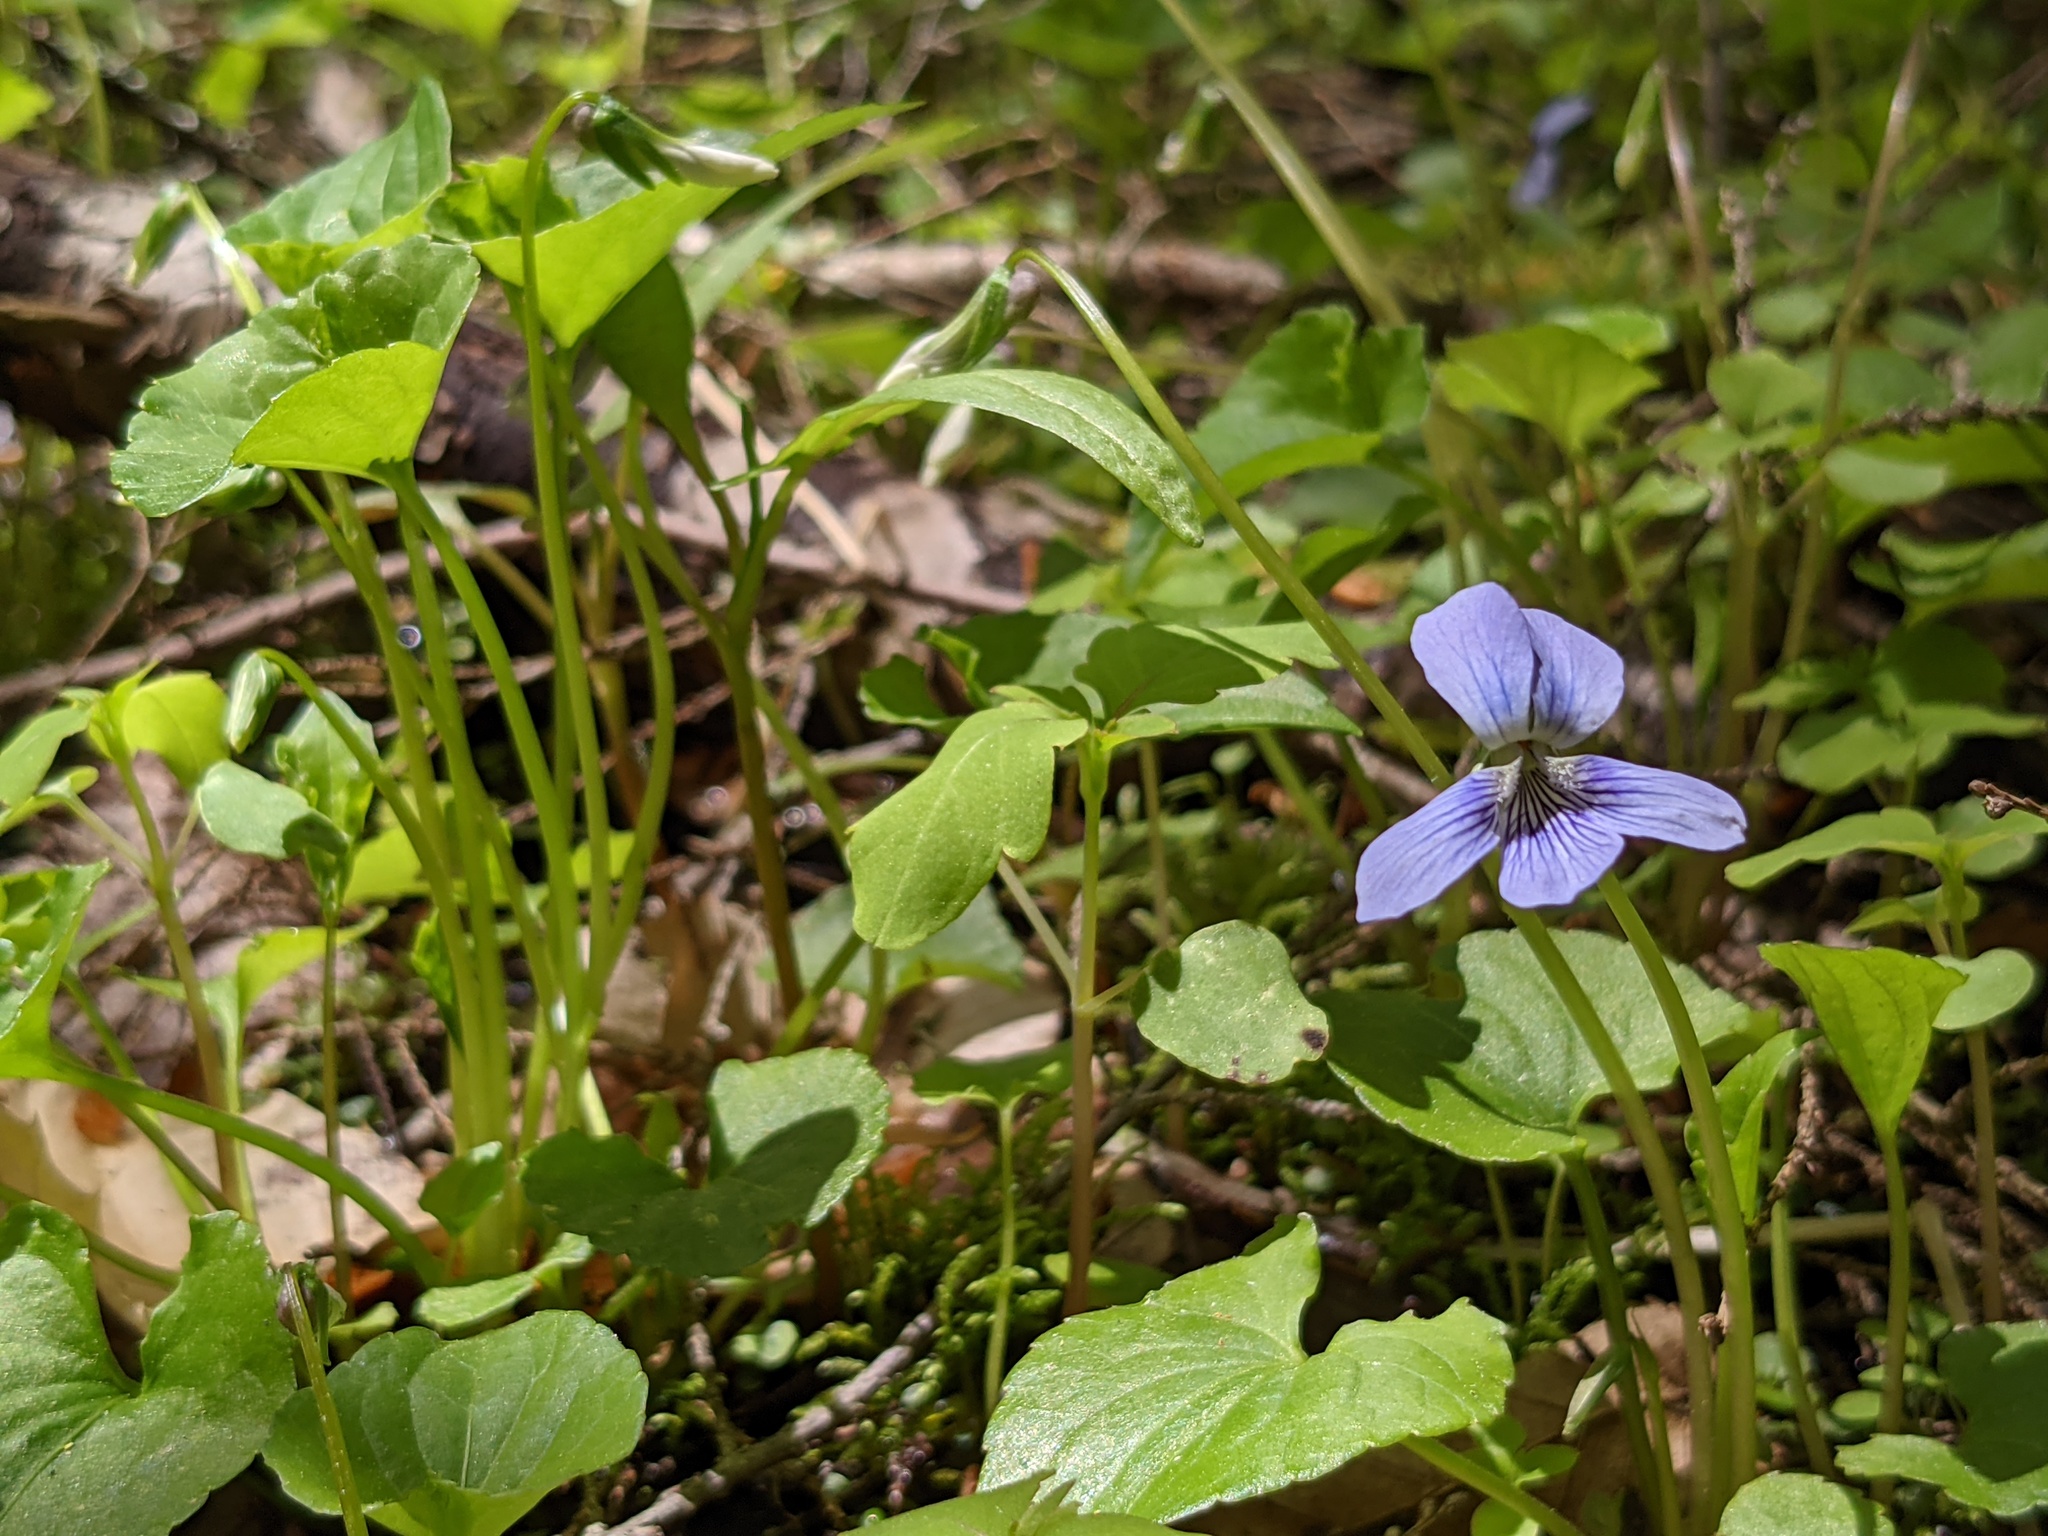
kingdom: Plantae
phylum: Tracheophyta
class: Magnoliopsida
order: Malpighiales
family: Violaceae
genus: Viola
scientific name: Viola cucullata
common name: Marsh blue violet
